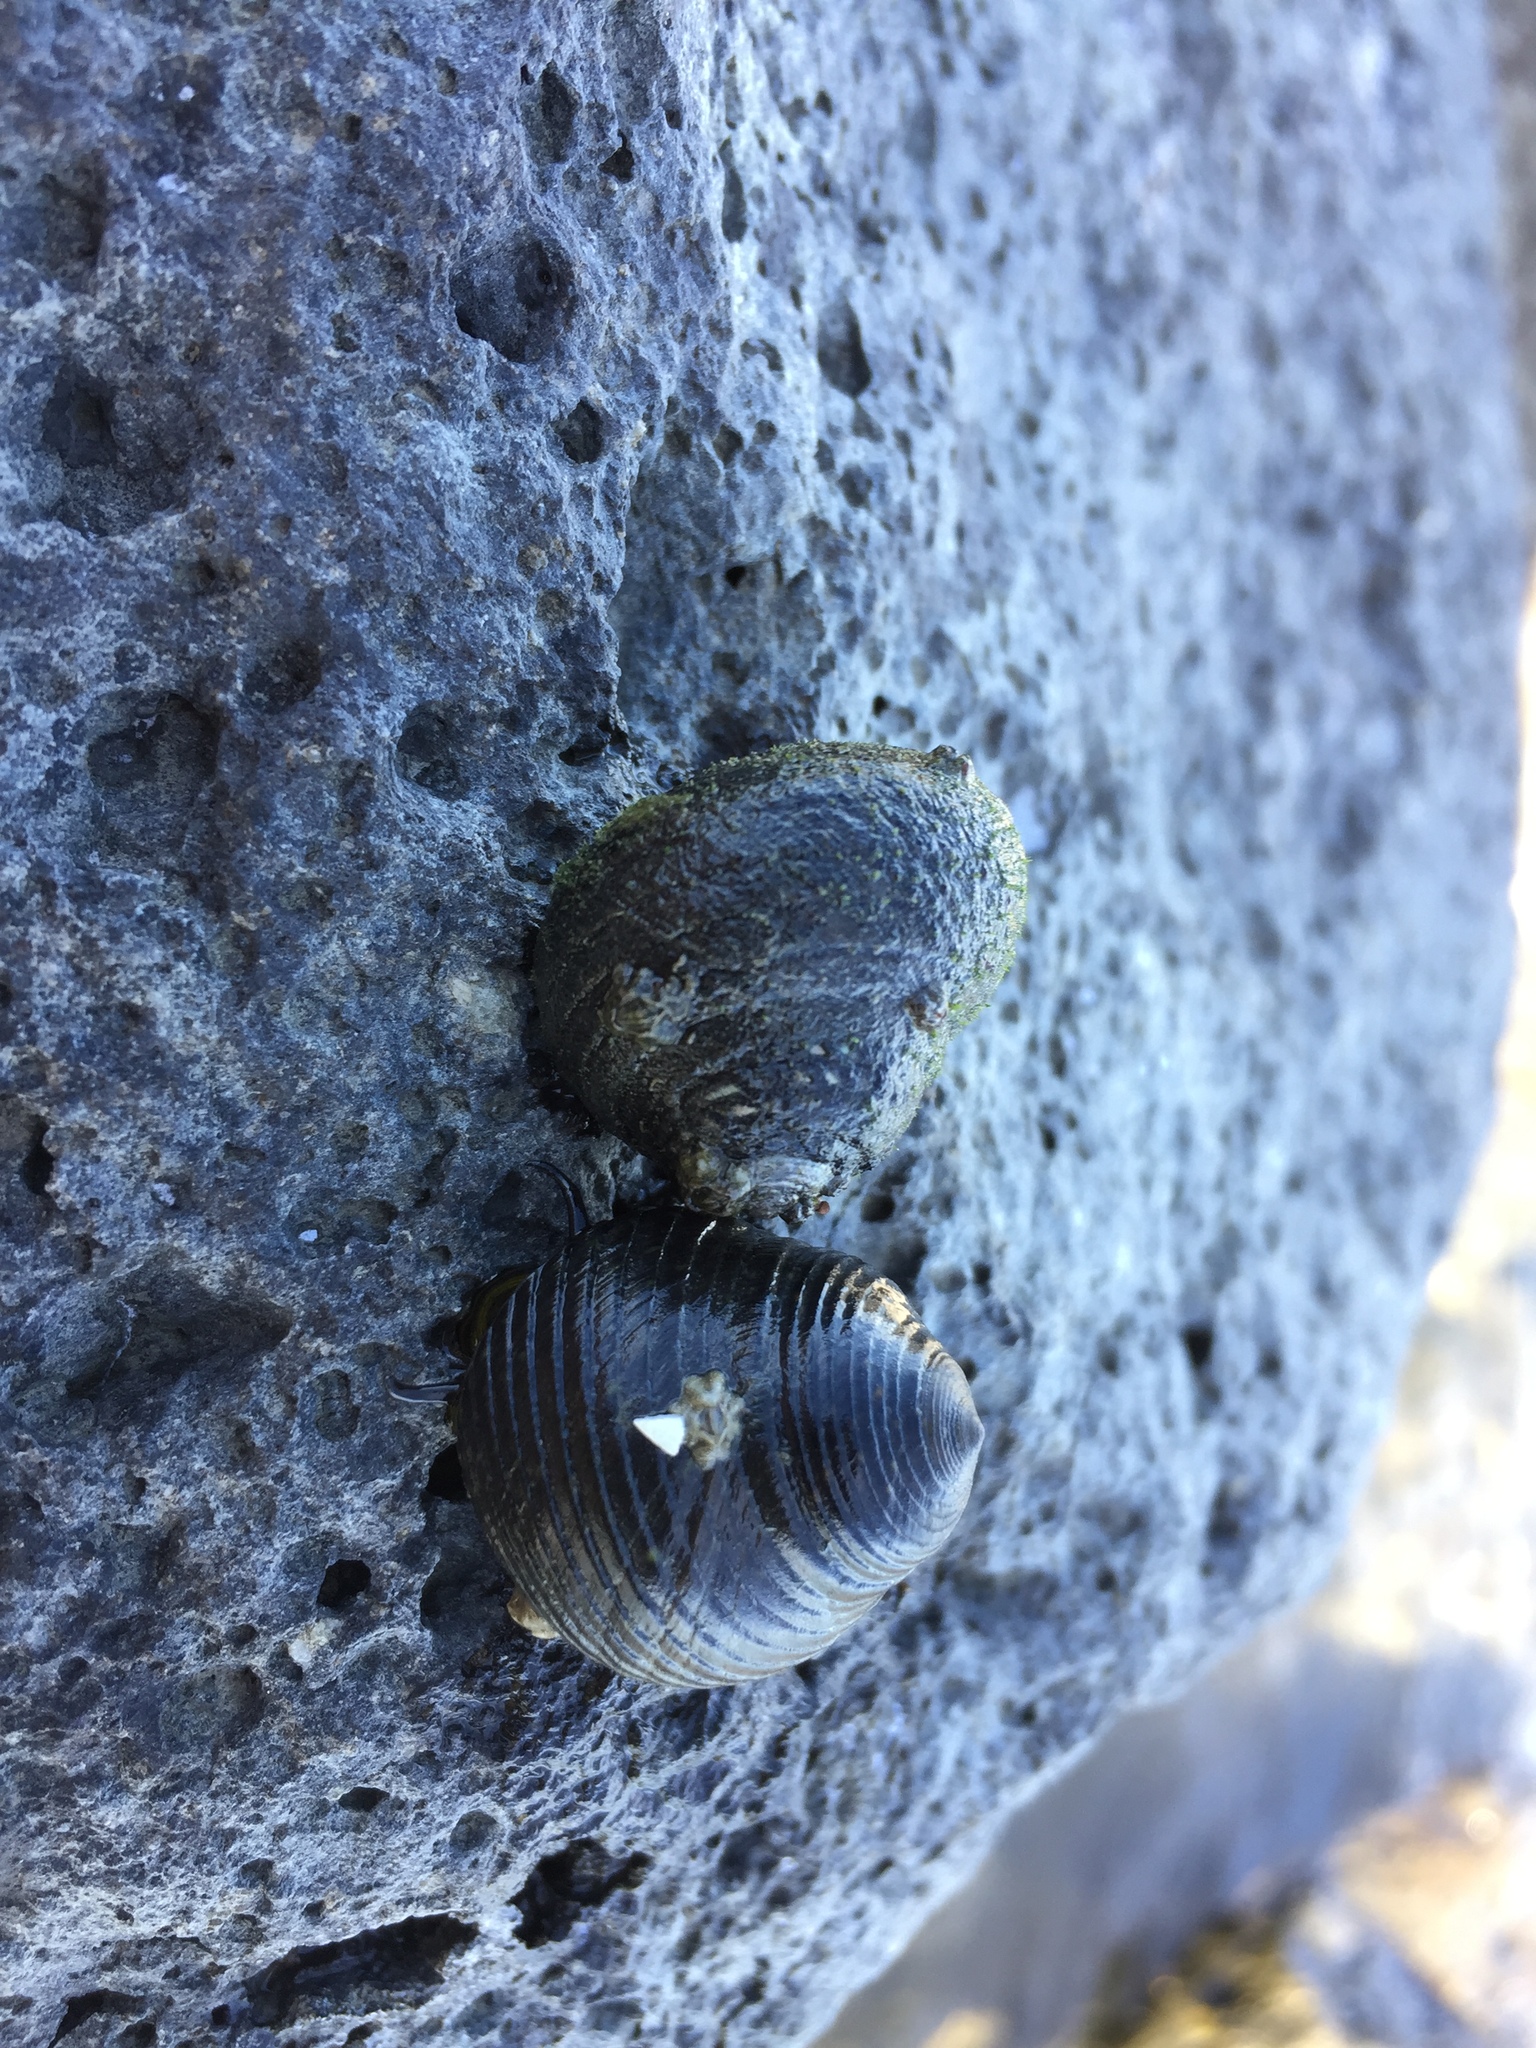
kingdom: Animalia
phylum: Mollusca
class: Gastropoda
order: Trochida
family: Trochidae
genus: Diloma
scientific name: Diloma zelandicum
